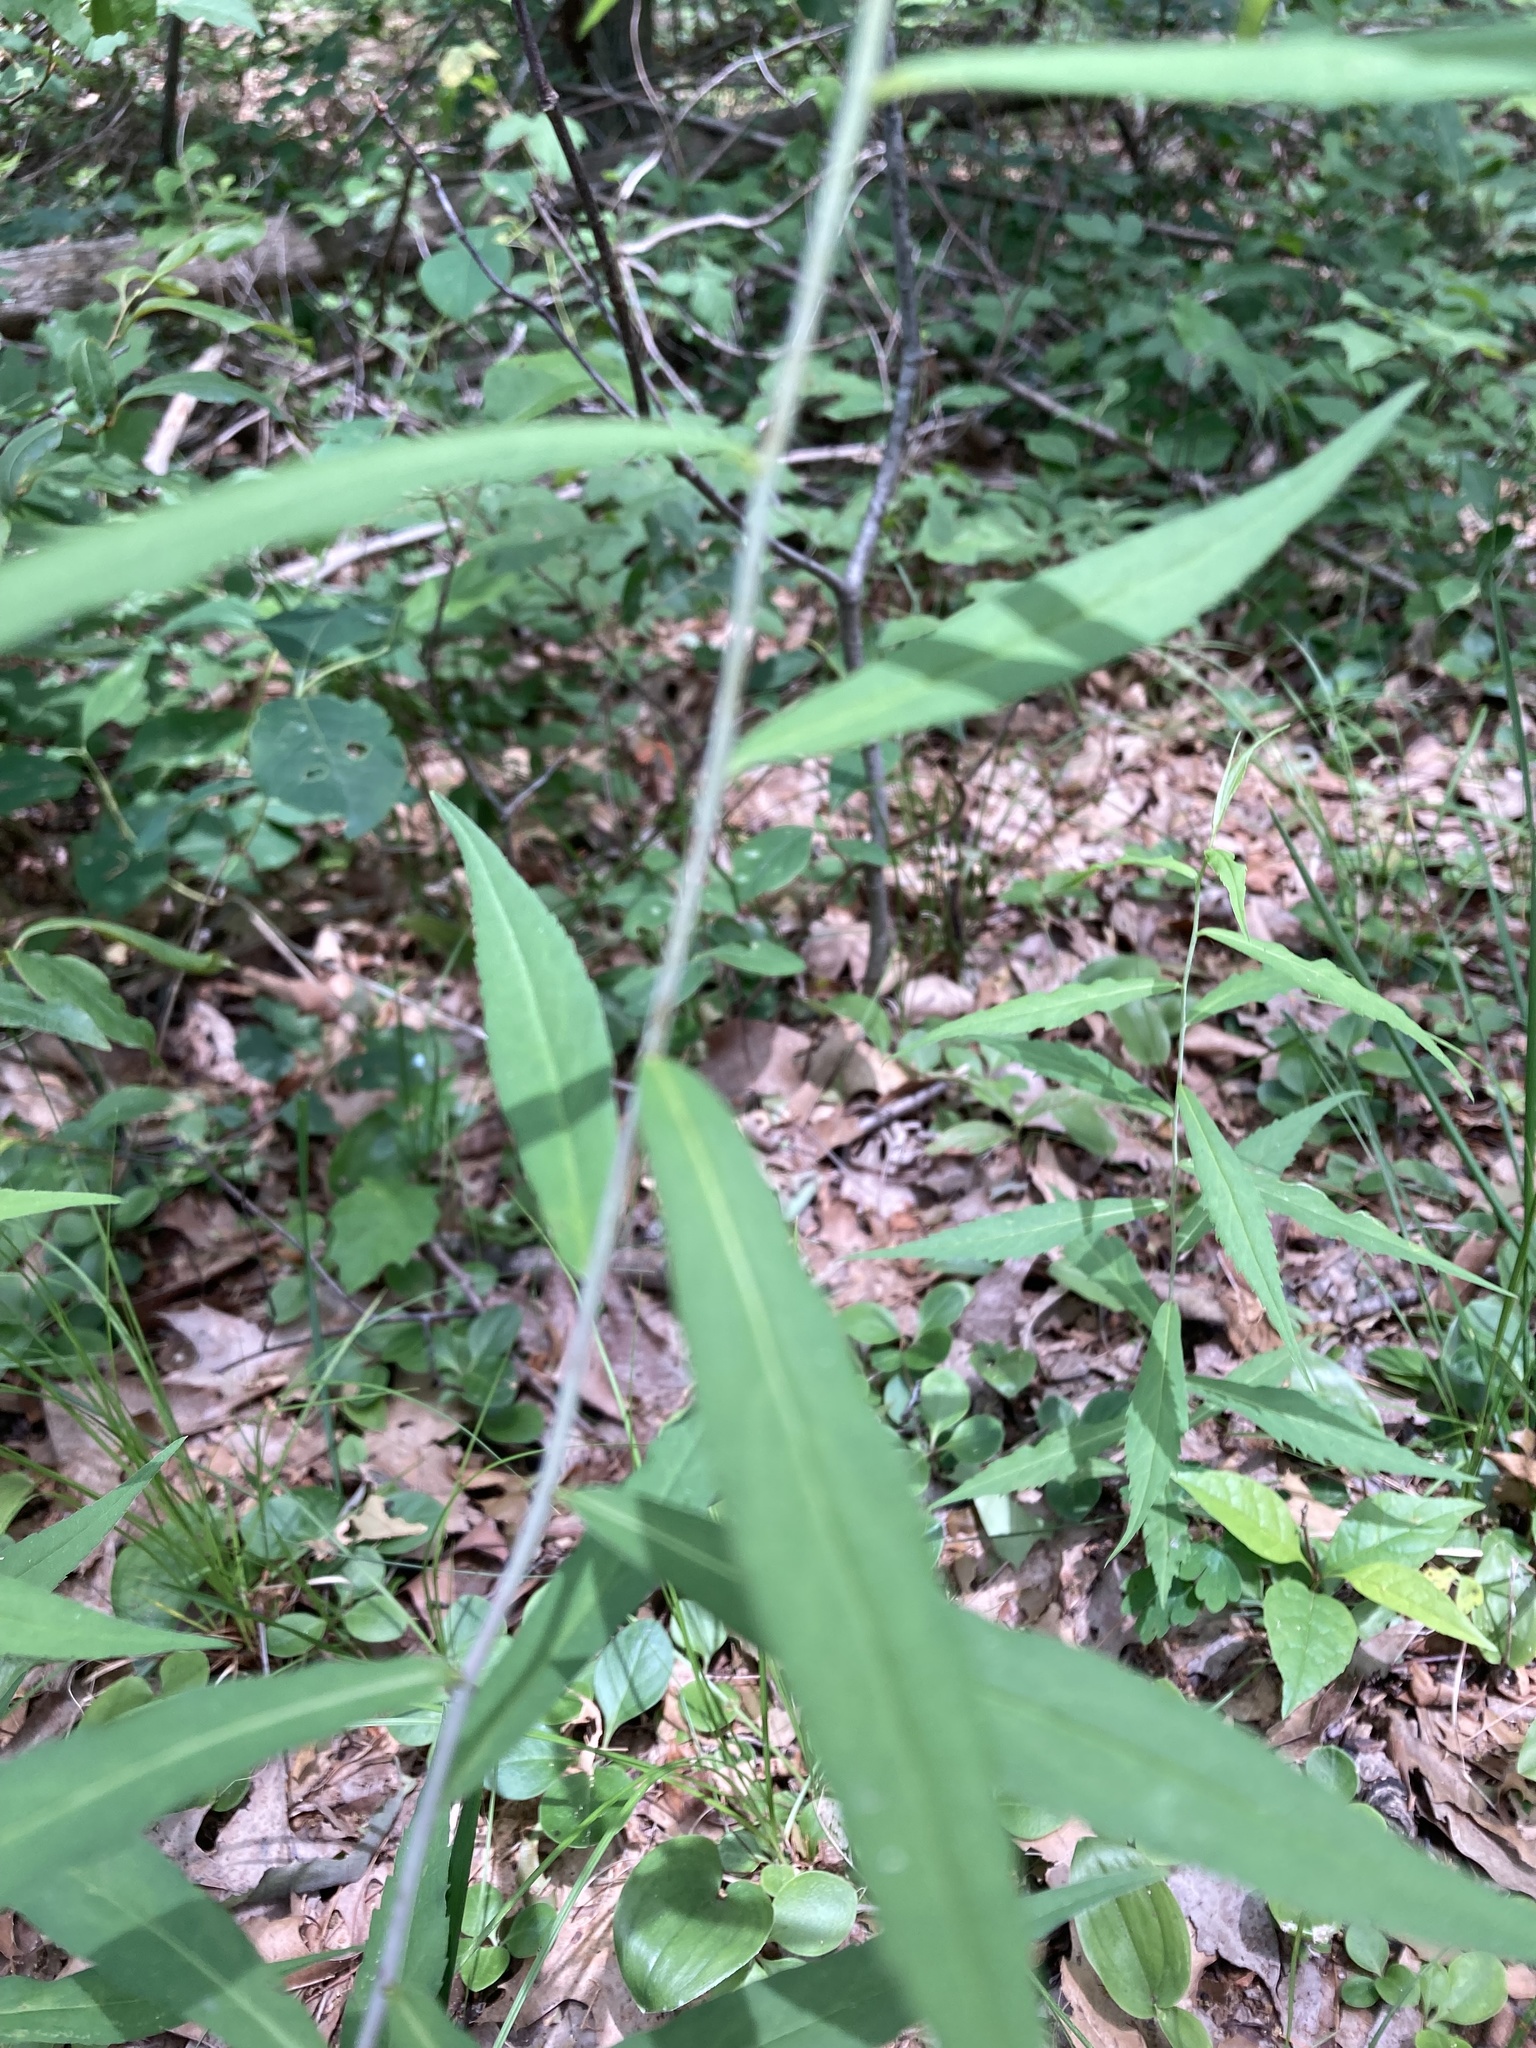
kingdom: Plantae
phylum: Tracheophyta
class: Magnoliopsida
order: Asterales
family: Asteraceae
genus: Solidago
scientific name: Solidago caesia
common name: Woodland goldenrod
